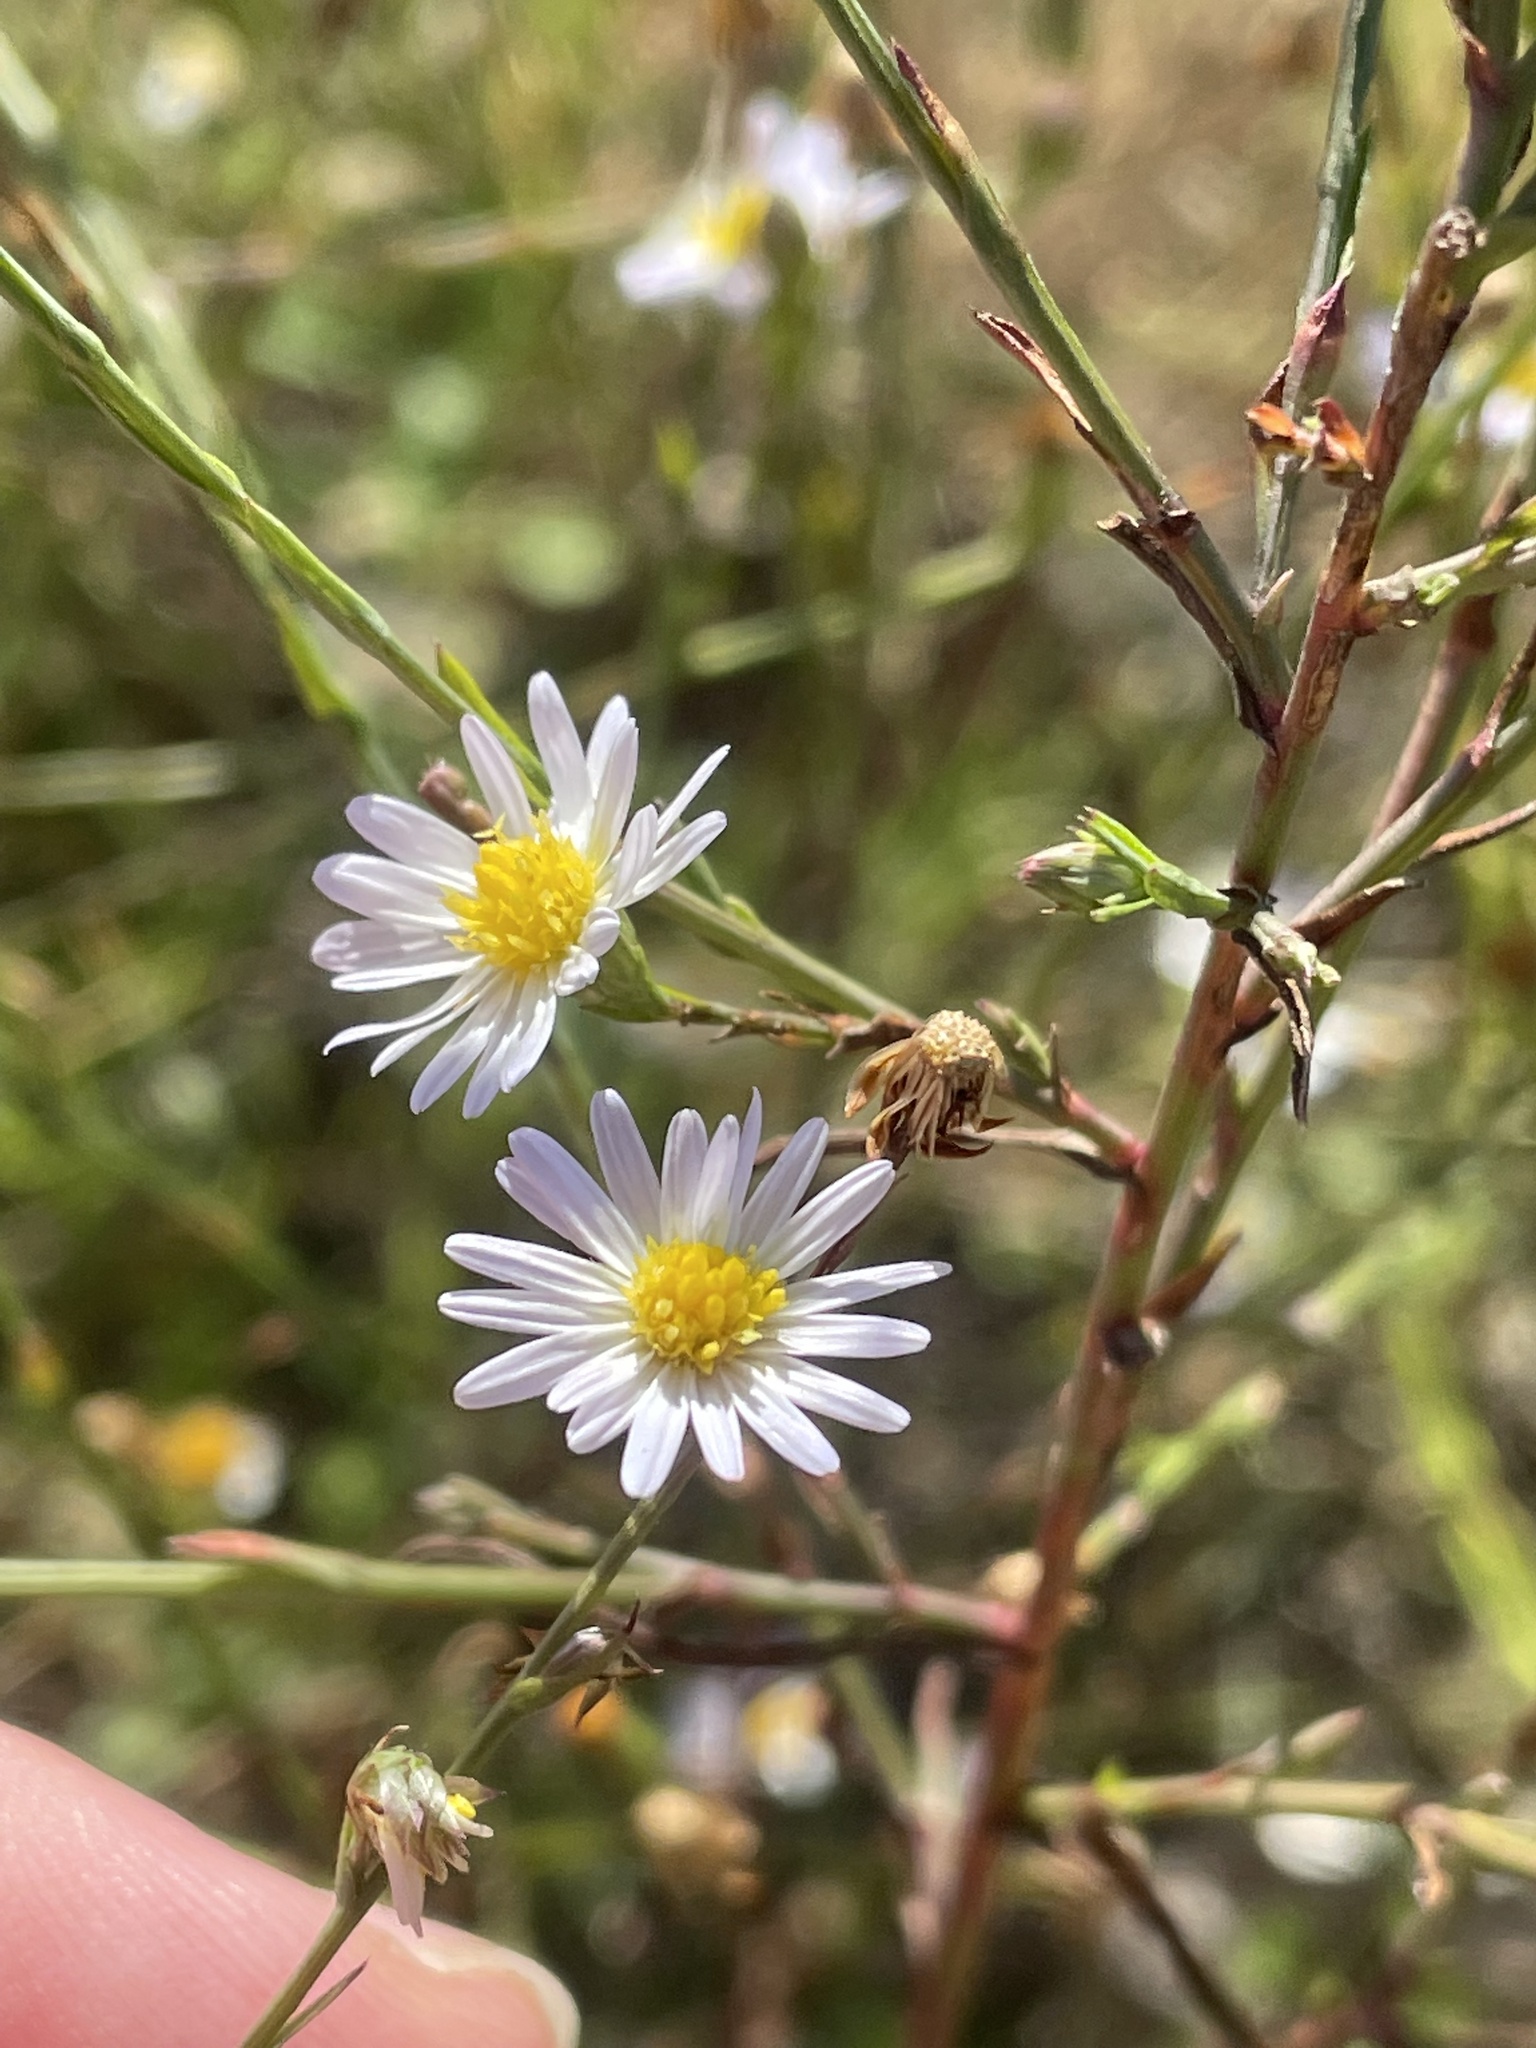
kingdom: Plantae
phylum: Tracheophyta
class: Magnoliopsida
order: Asterales
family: Asteraceae
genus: Symphyotrichum
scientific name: Symphyotrichum divaricatum
